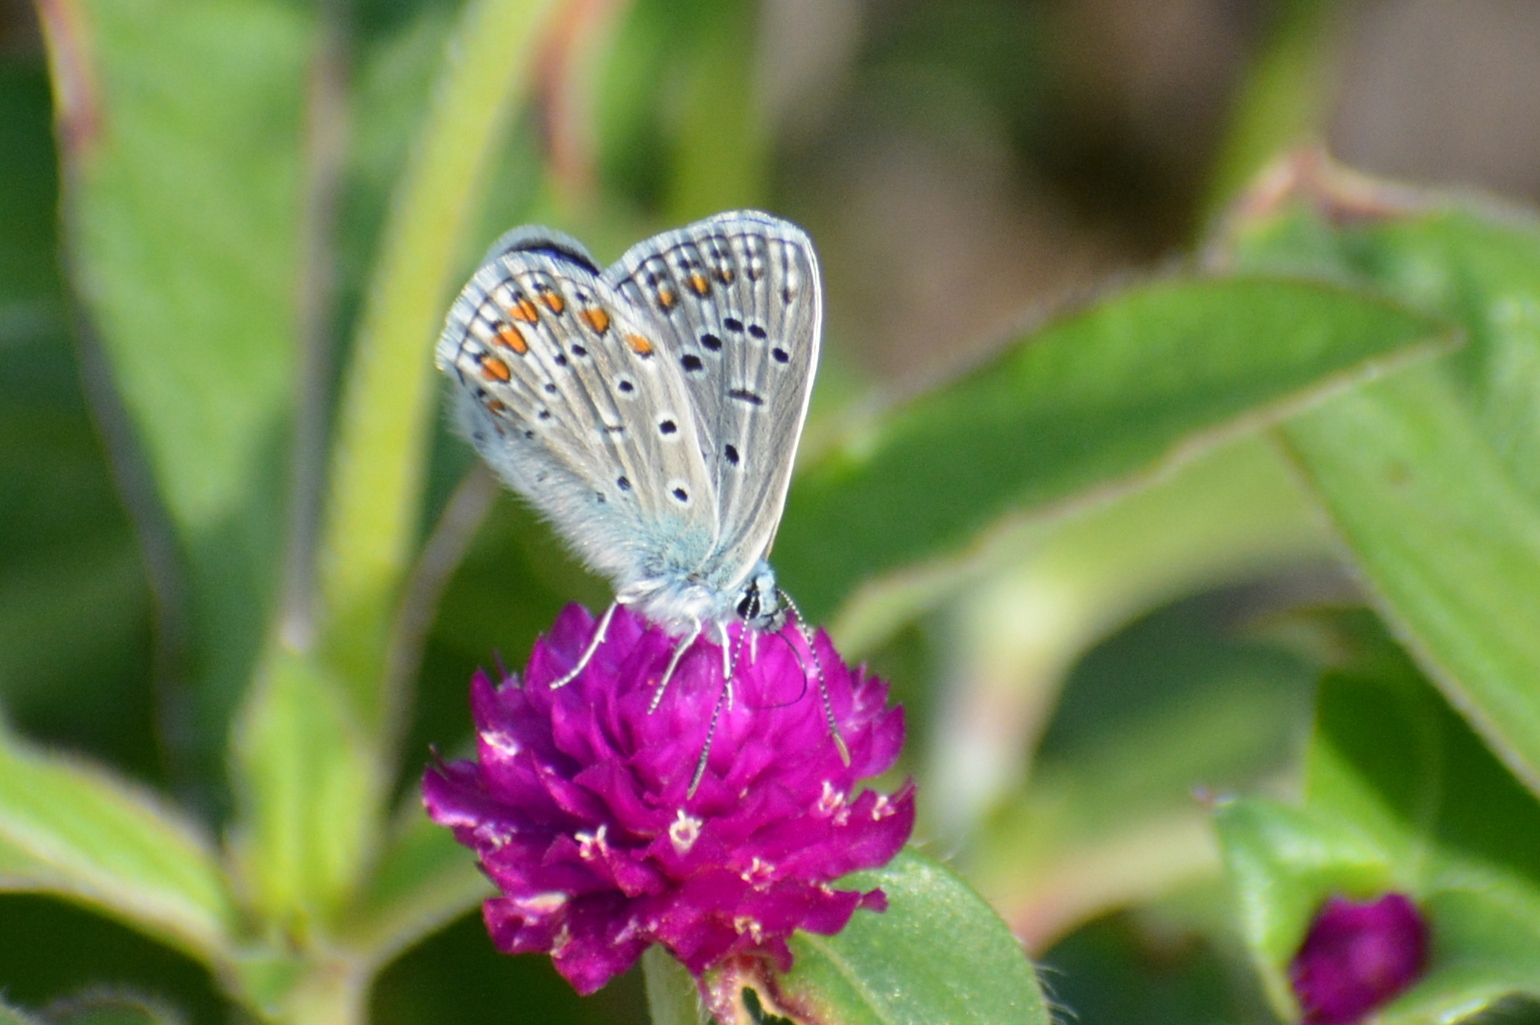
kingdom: Animalia
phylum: Arthropoda
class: Insecta
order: Lepidoptera
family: Lycaenidae
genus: Polyommatus
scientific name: Polyommatus icarus
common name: Common blue
